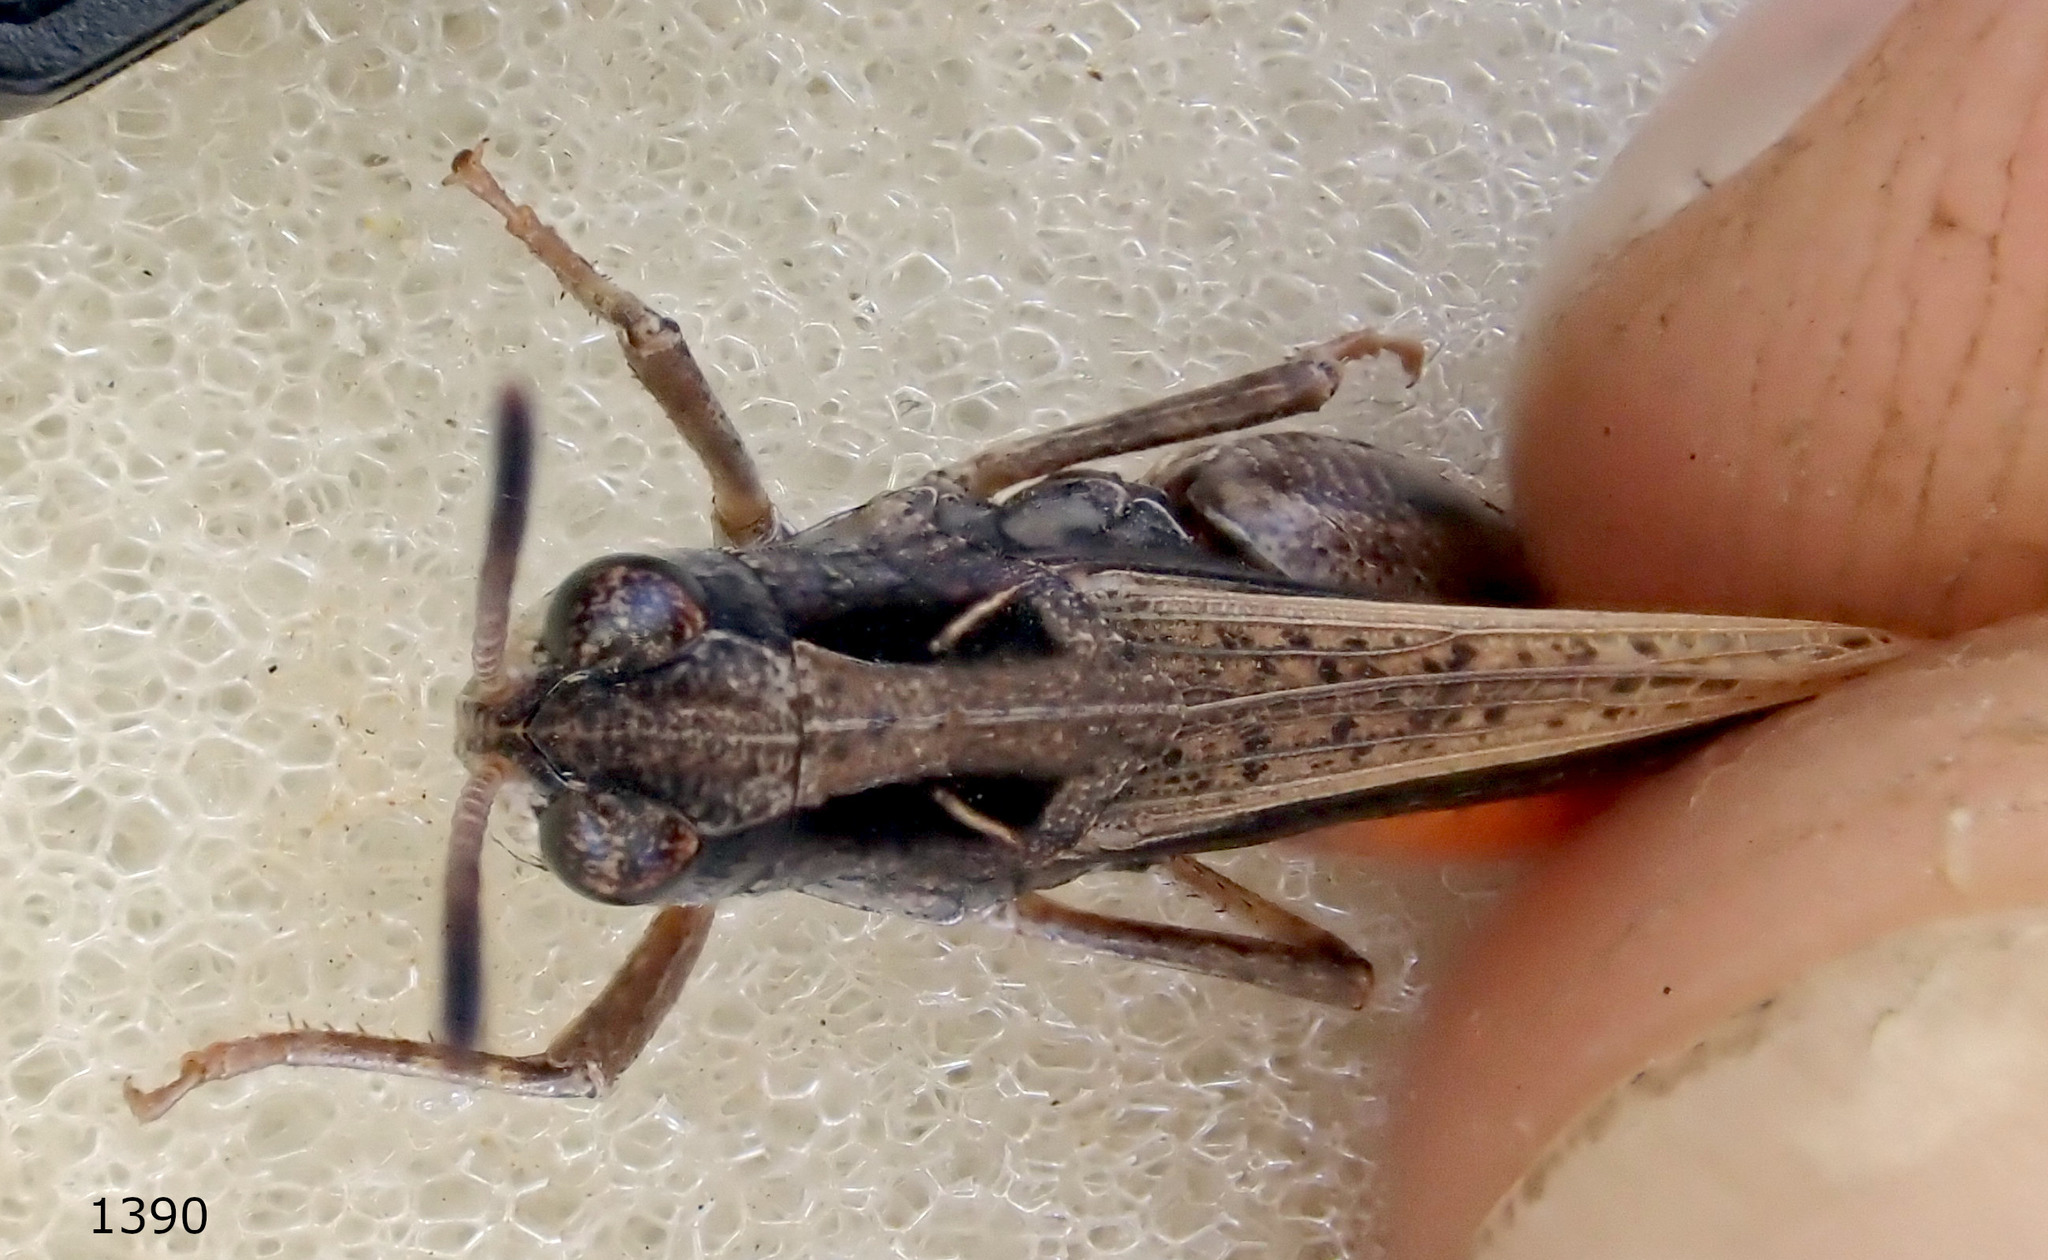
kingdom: Animalia
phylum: Arthropoda
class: Insecta
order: Orthoptera
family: Acrididae
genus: Cryptobothrus
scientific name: Cryptobothrus chrysophorus
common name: Golden bandwing
